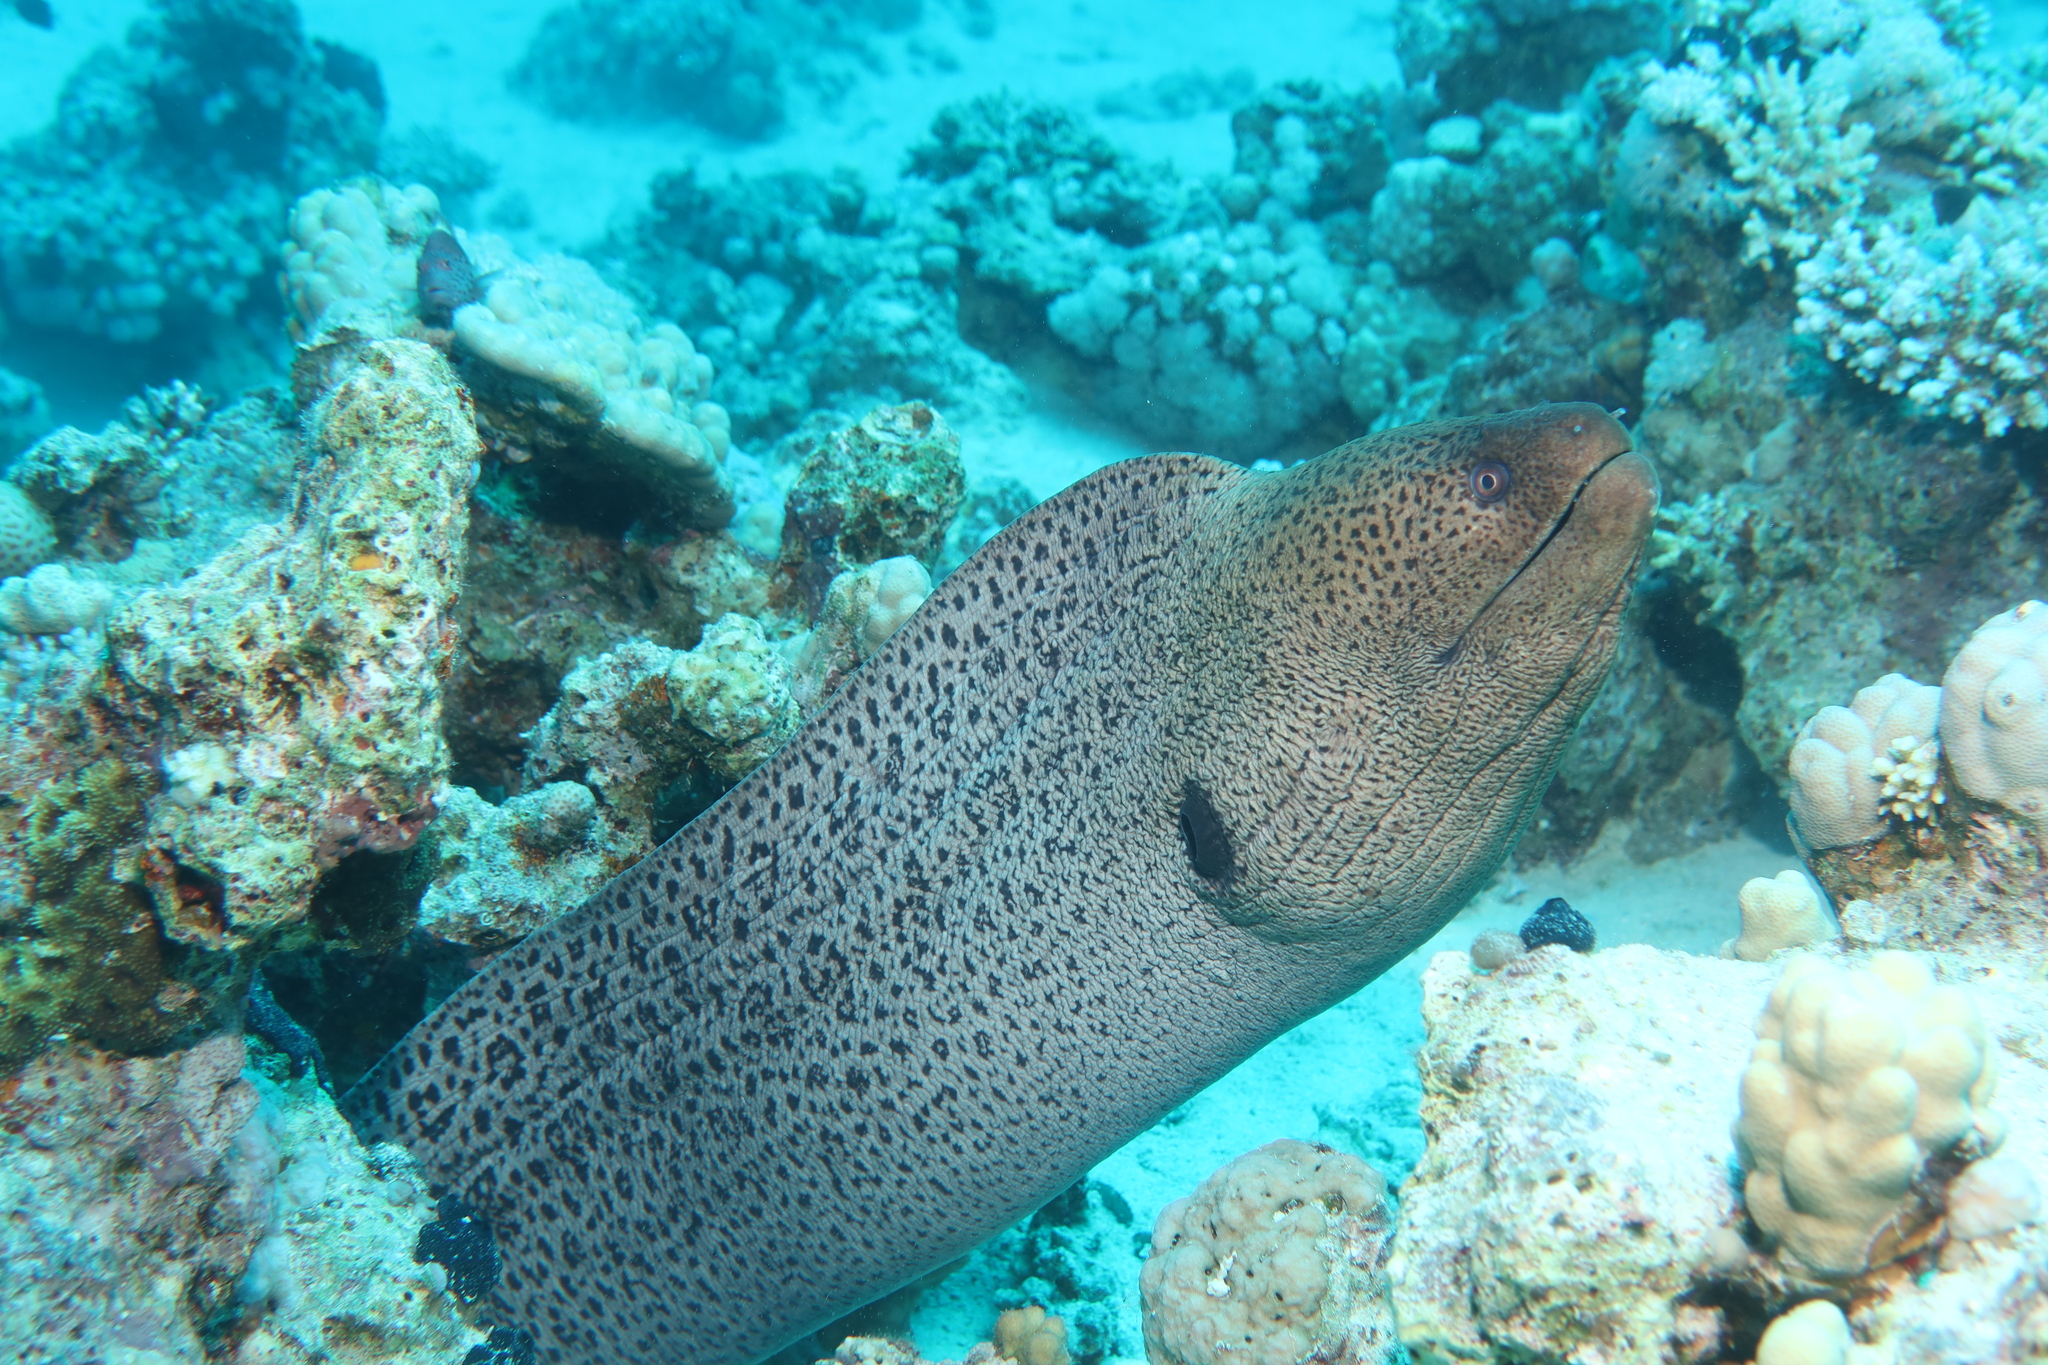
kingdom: Animalia
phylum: Chordata
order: Anguilliformes
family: Muraenidae
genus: Gymnothorax
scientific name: Gymnothorax javanicus
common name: Giant moray
